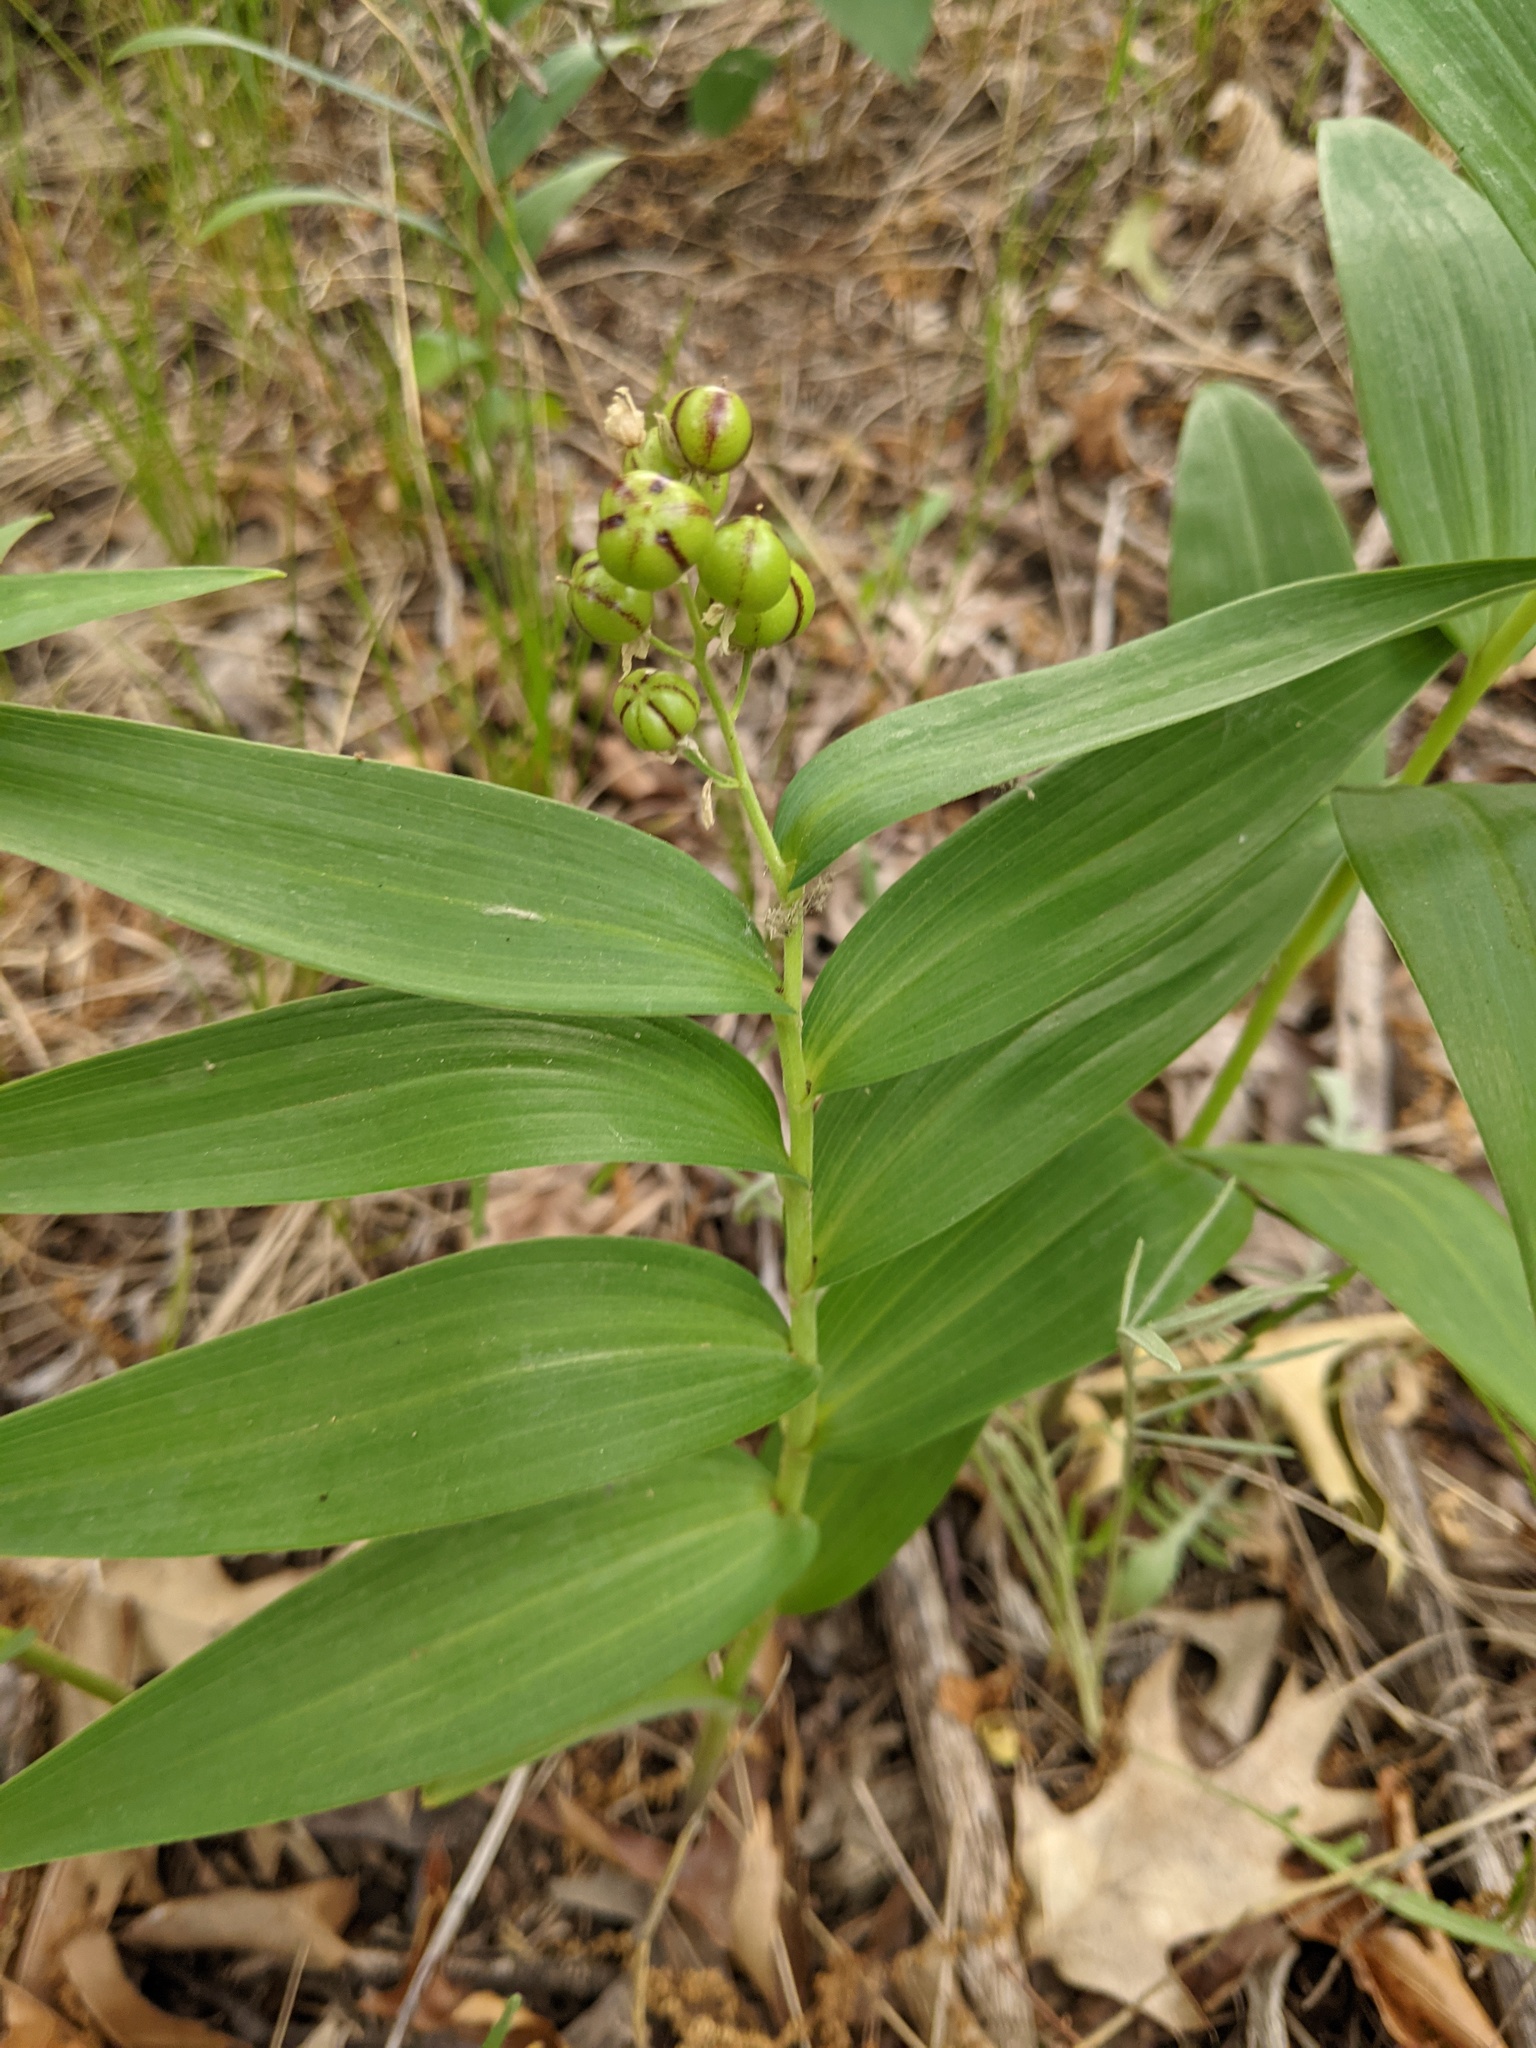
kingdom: Plantae
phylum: Tracheophyta
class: Liliopsida
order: Asparagales
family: Asparagaceae
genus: Maianthemum
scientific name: Maianthemum stellatum
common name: Little false solomon's seal
